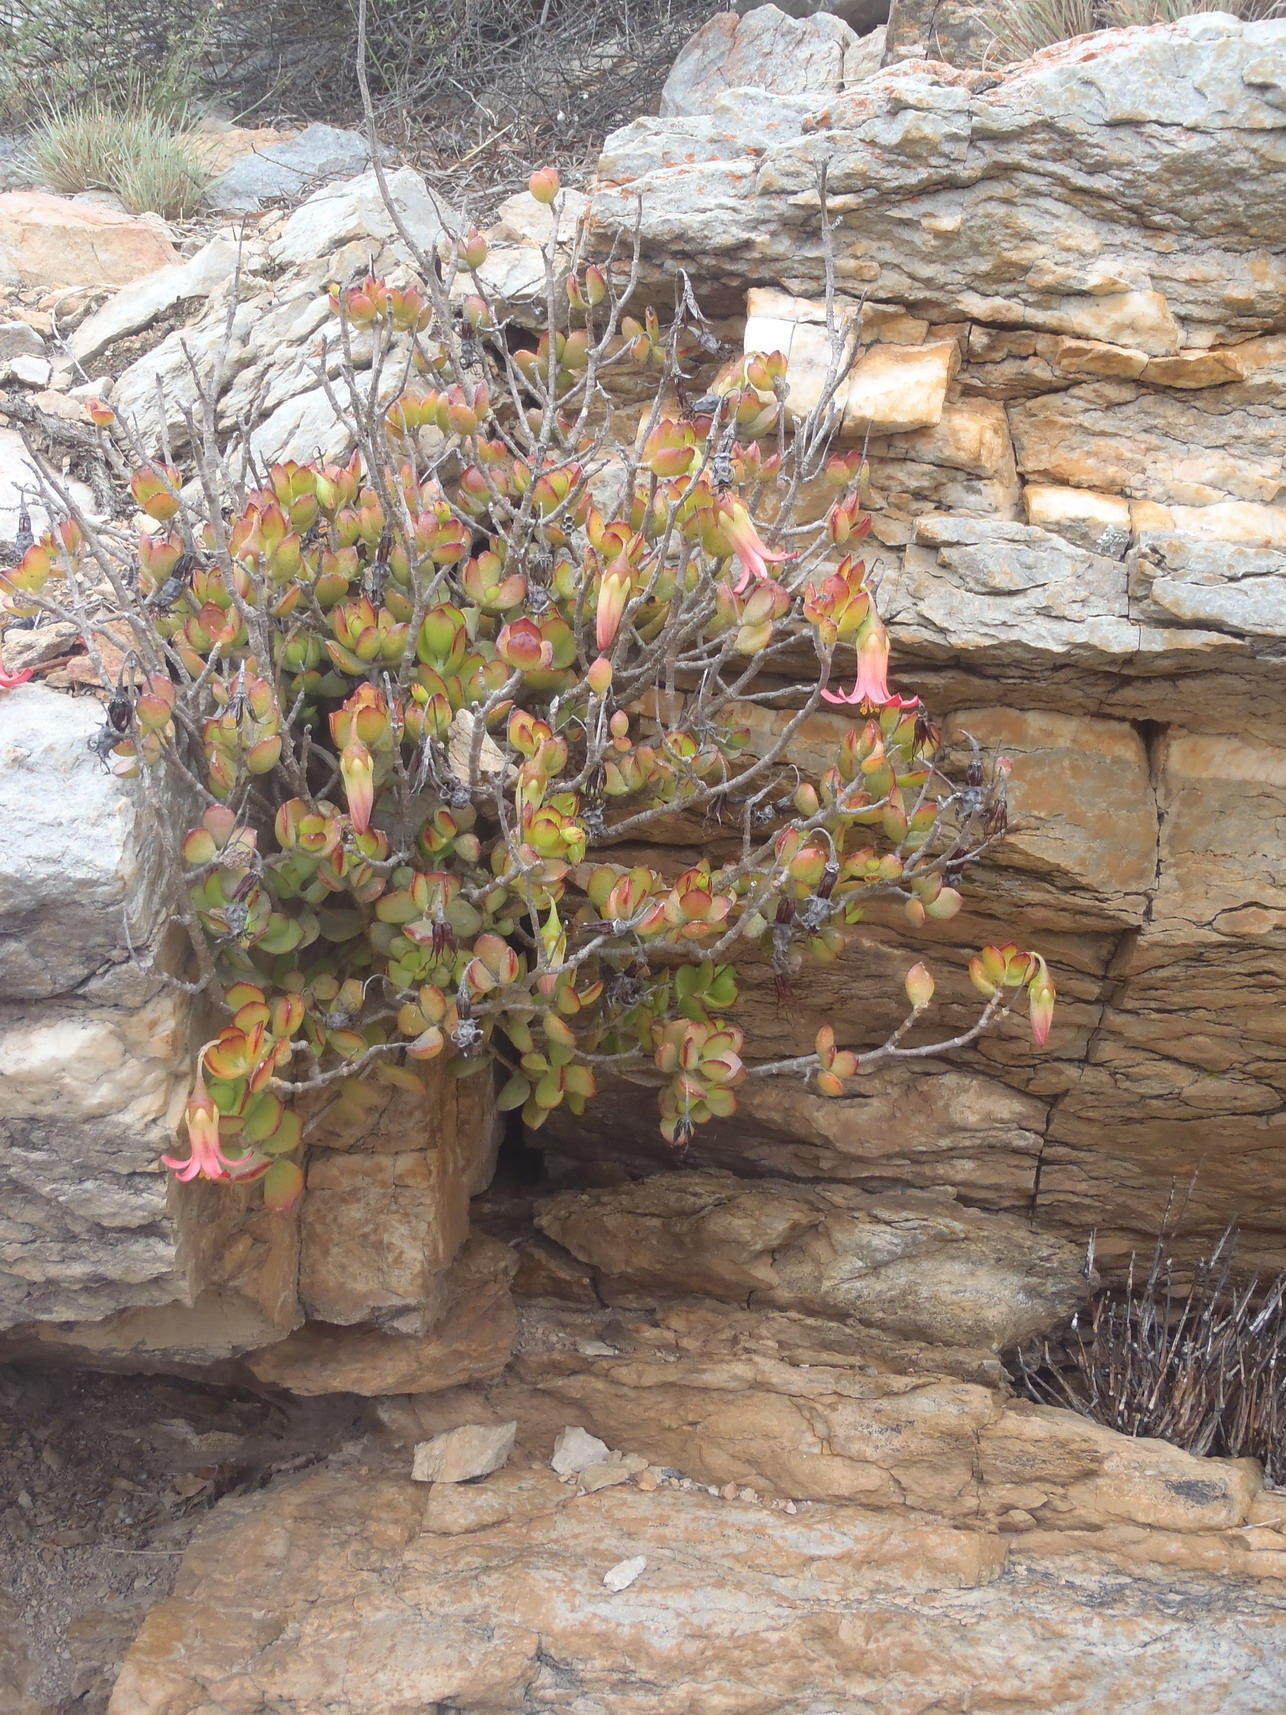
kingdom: Plantae
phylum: Tracheophyta
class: Magnoliopsida
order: Saxifragales
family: Crassulaceae
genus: Cotyledon
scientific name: Cotyledon woodii
